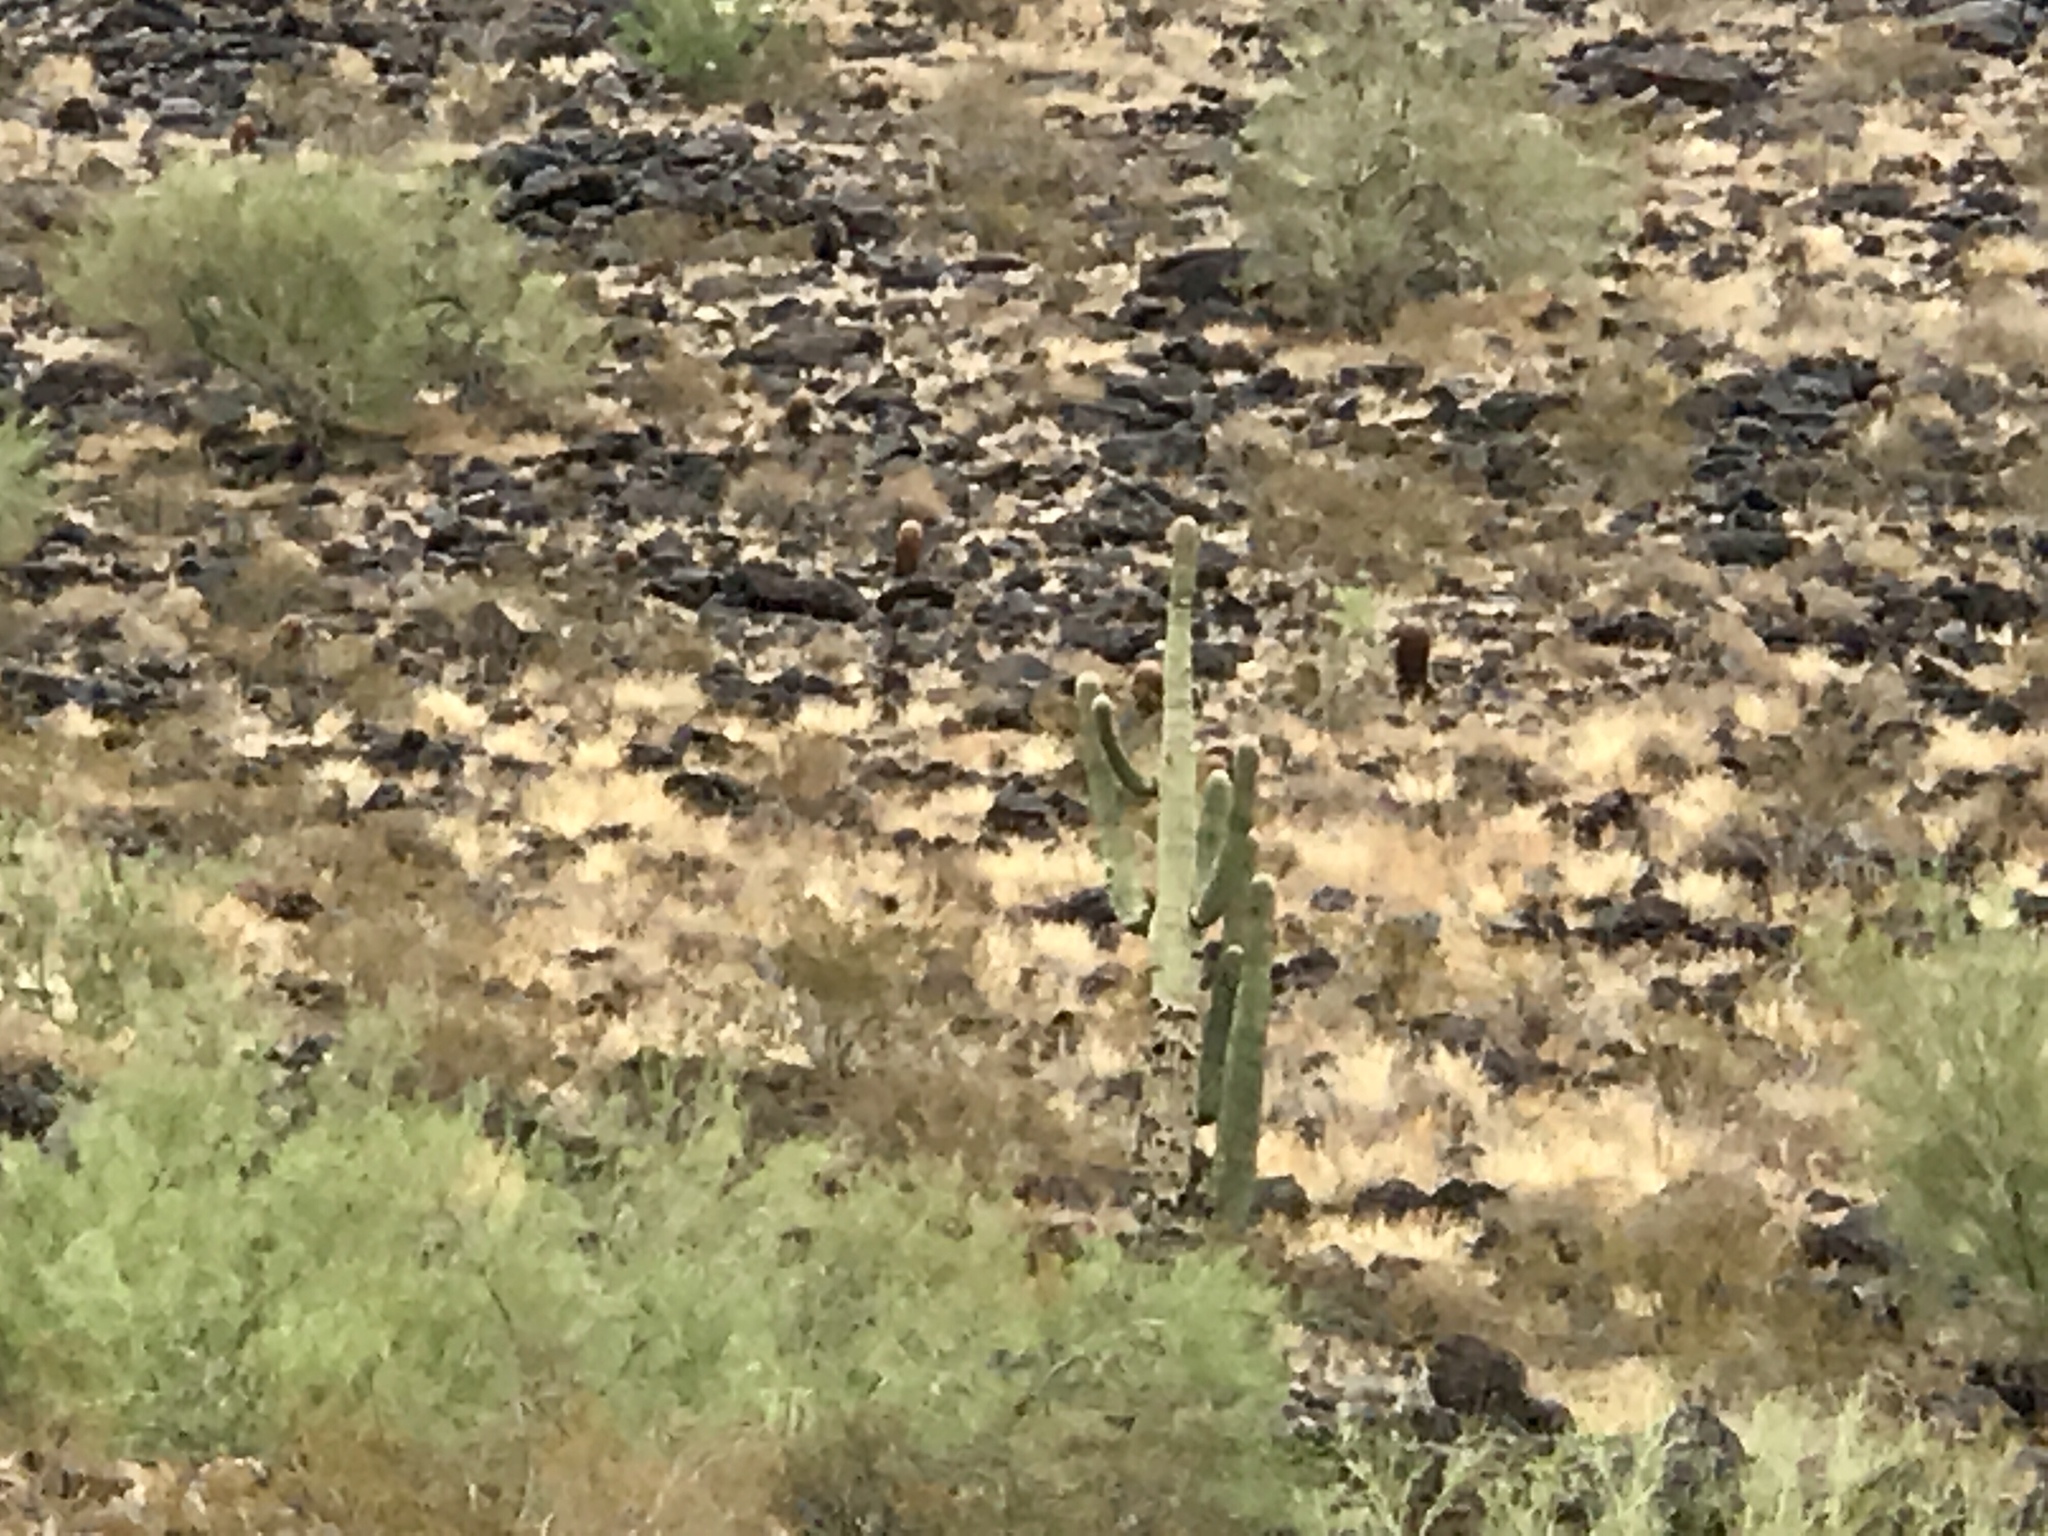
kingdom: Plantae
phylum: Tracheophyta
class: Magnoliopsida
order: Caryophyllales
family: Cactaceae
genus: Carnegiea
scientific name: Carnegiea gigantea
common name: Saguaro
